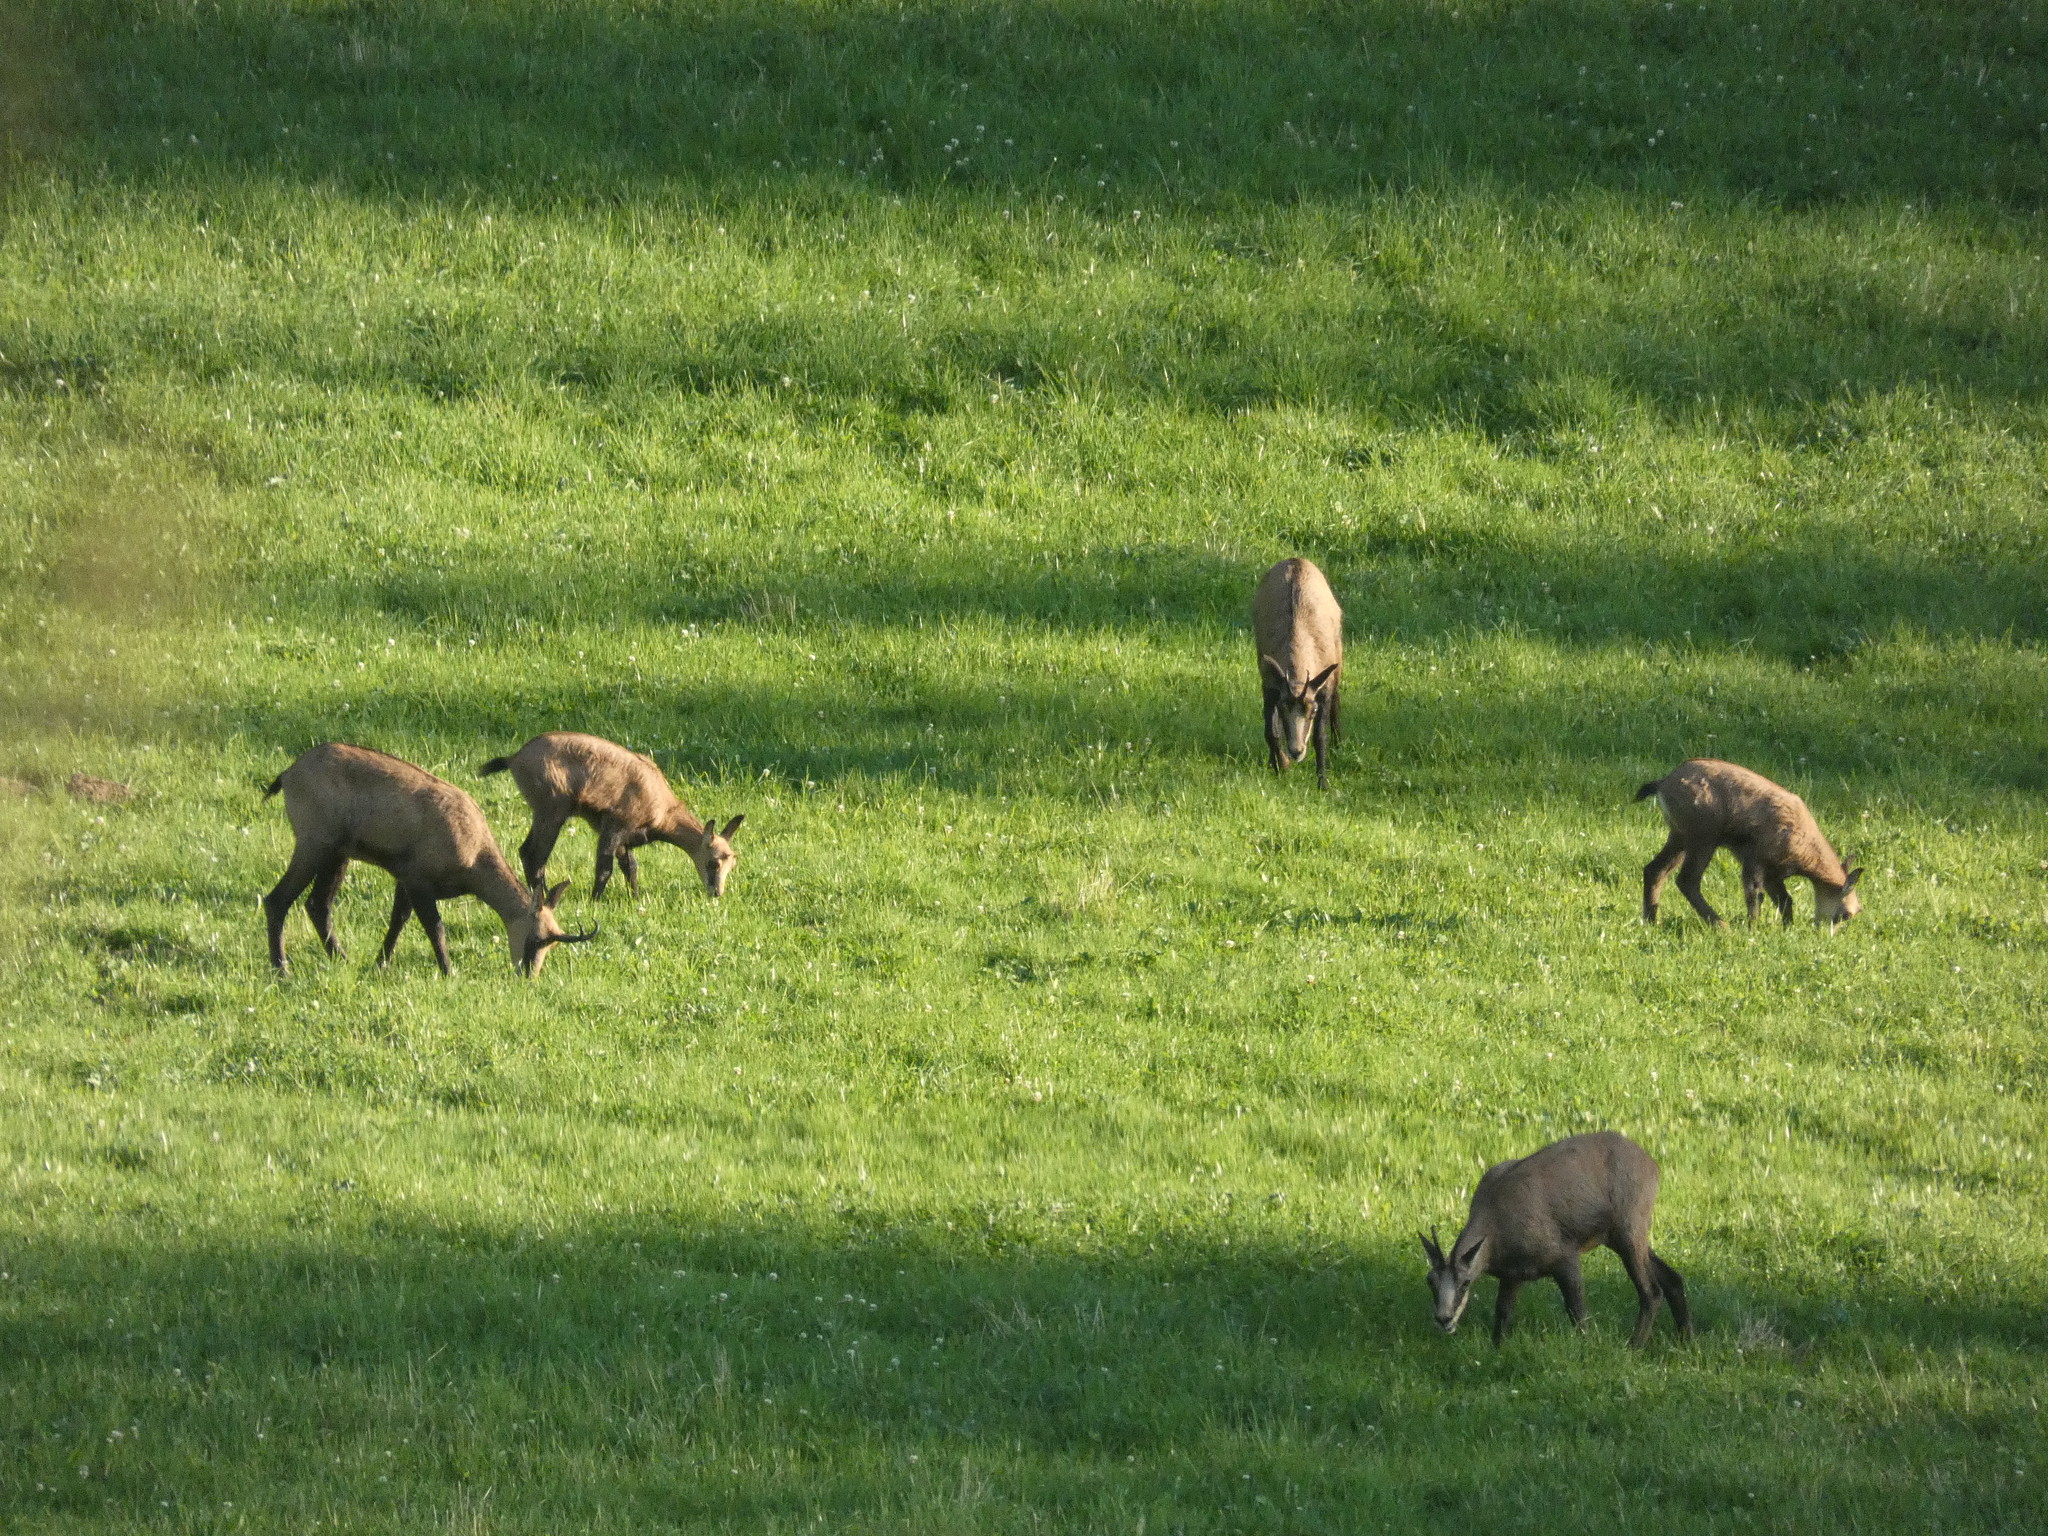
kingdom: Animalia
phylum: Chordata
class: Mammalia
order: Artiodactyla
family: Bovidae
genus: Rupicapra
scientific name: Rupicapra rupicapra
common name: Chamois
